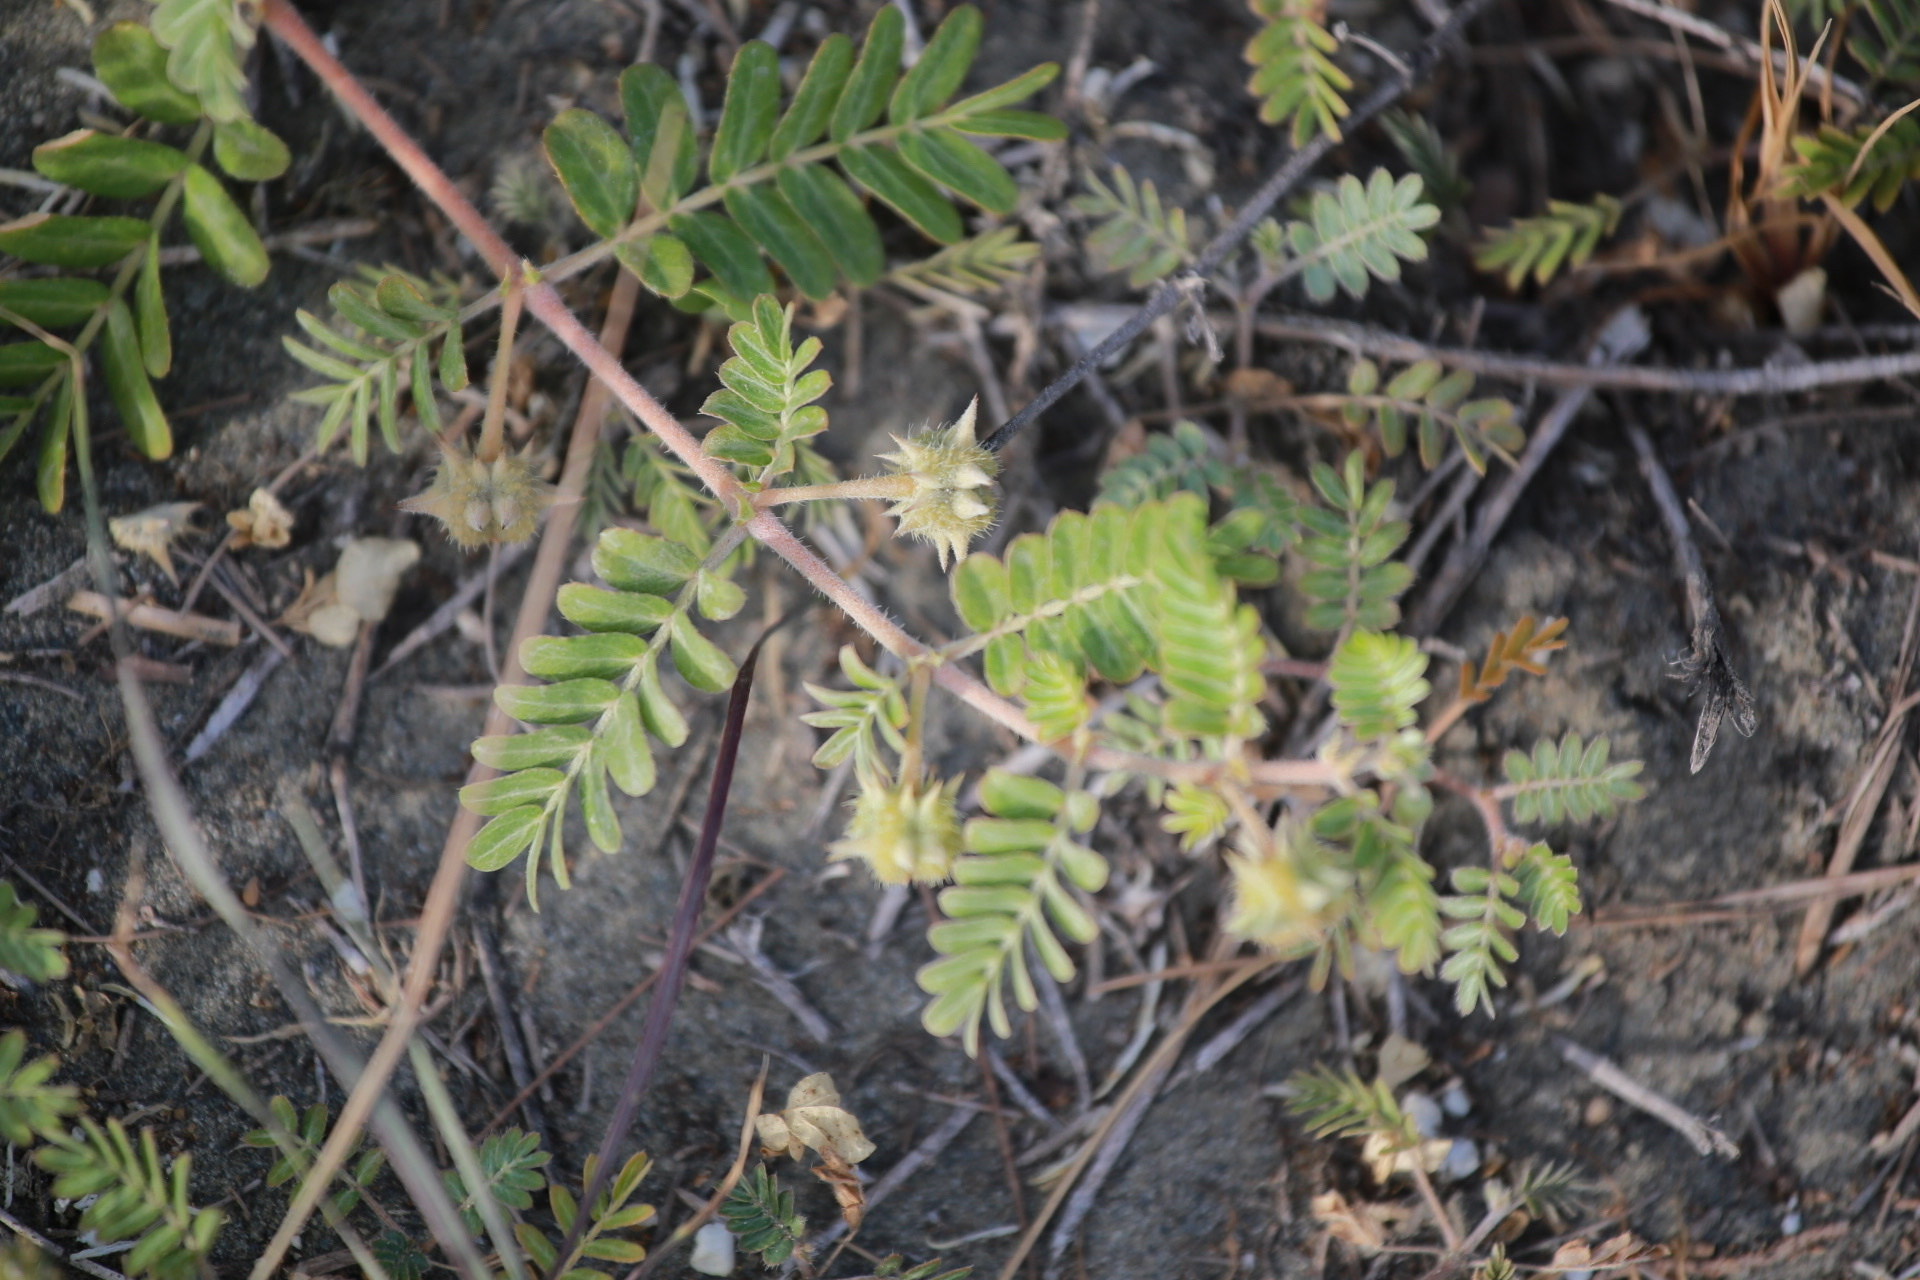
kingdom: Plantae
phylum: Tracheophyta
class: Magnoliopsida
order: Zygophyllales
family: Zygophyllaceae
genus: Tribulus
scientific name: Tribulus cistoides
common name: Jamaican feverplant
